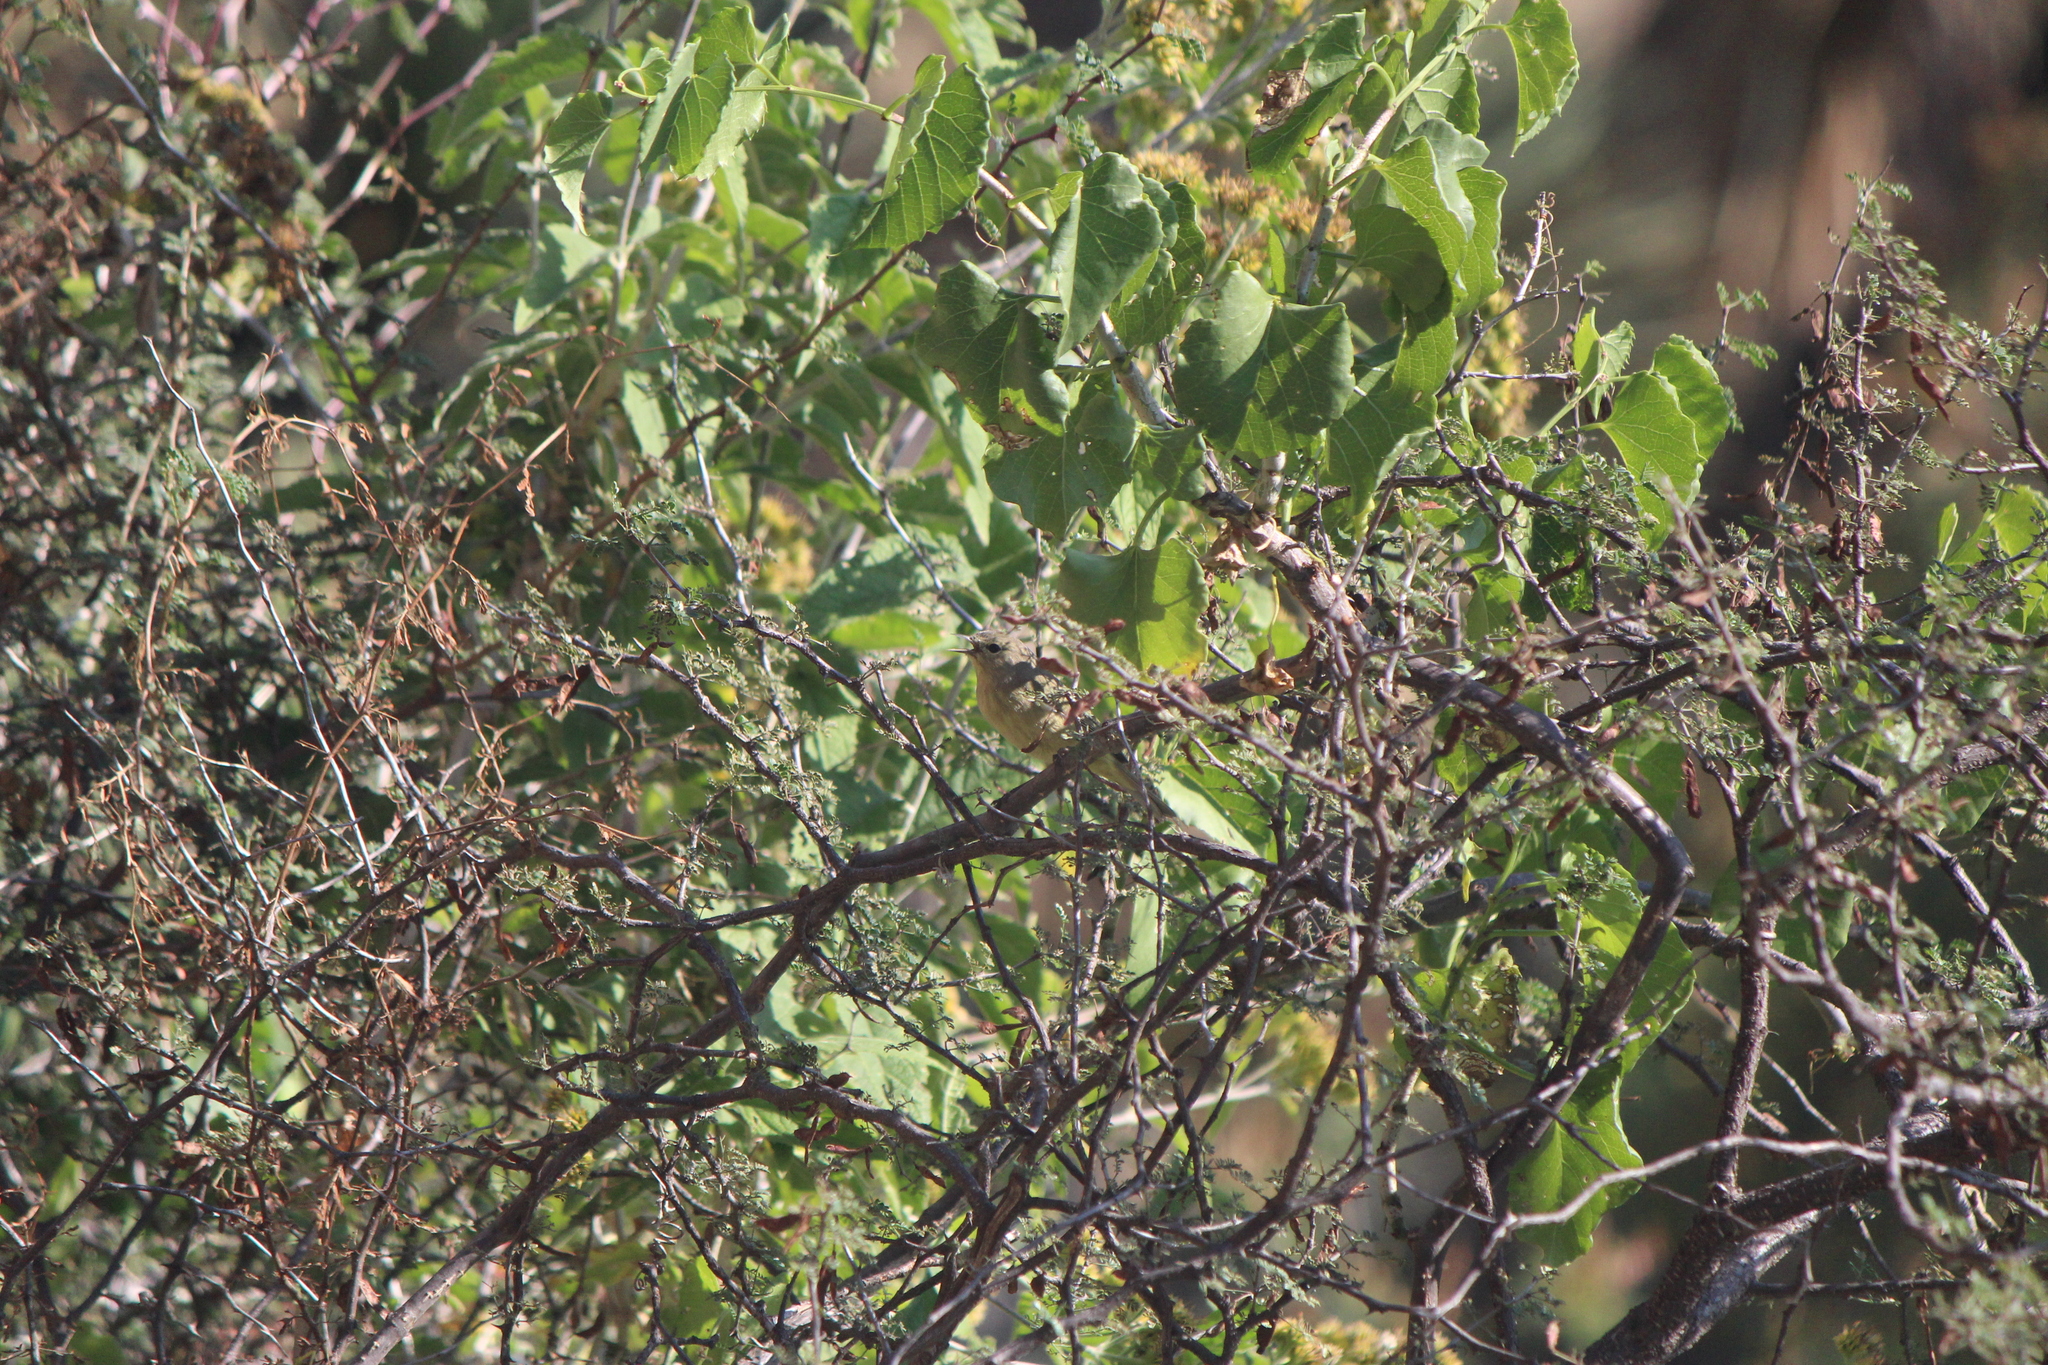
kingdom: Animalia
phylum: Chordata
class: Aves
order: Passeriformes
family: Parulidae
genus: Leiothlypis
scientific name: Leiothlypis celata
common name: Orange-crowned warbler
